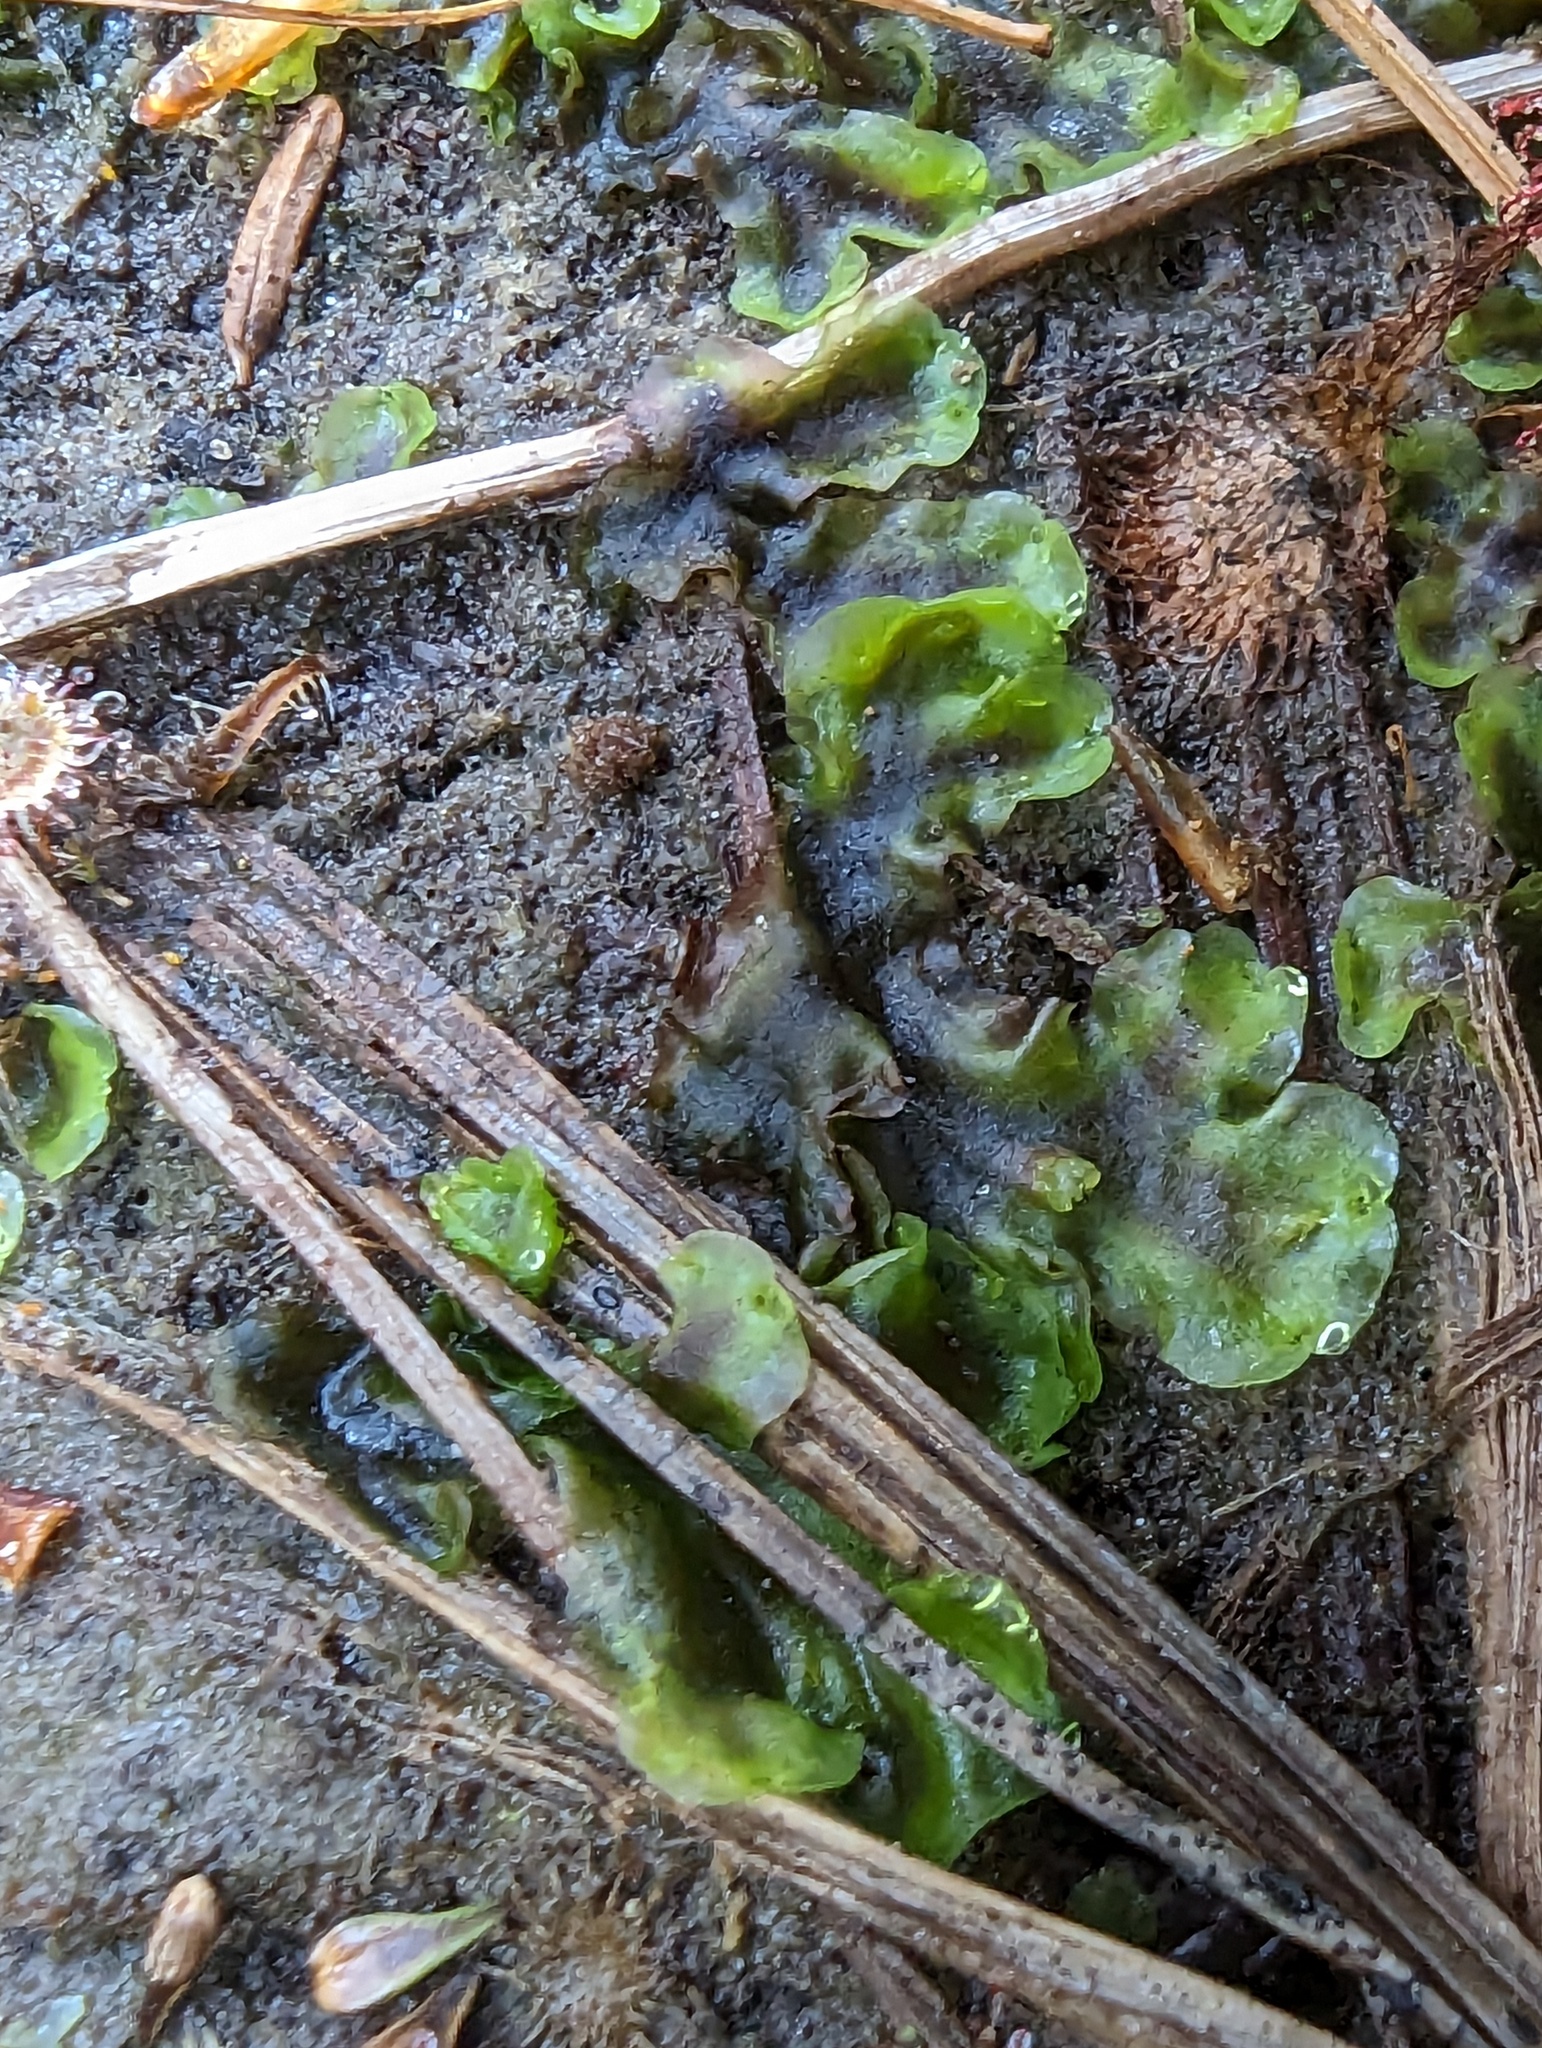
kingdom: Plantae
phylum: Marchantiophyta
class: Jungermanniopsida
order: Pelliales
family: Pelliaceae
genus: Pellia
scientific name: Pellia neesiana
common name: Nees  pellia
